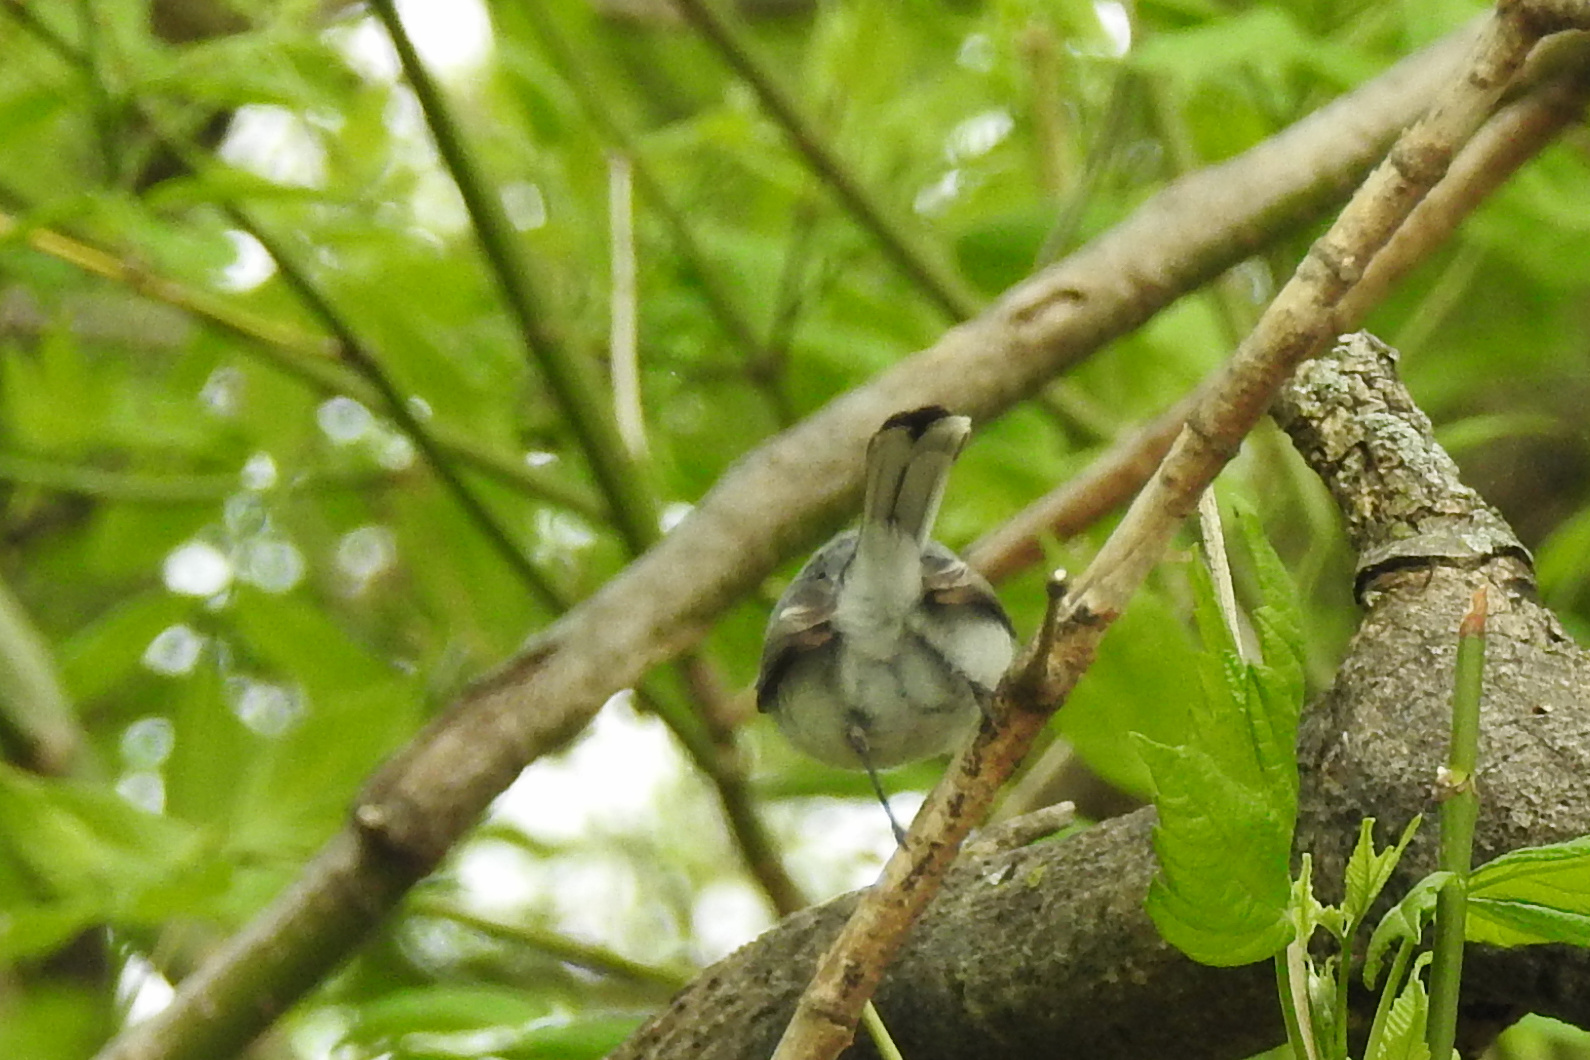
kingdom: Animalia
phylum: Chordata
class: Aves
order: Passeriformes
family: Polioptilidae
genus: Polioptila
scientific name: Polioptila caerulea
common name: Blue-gray gnatcatcher
